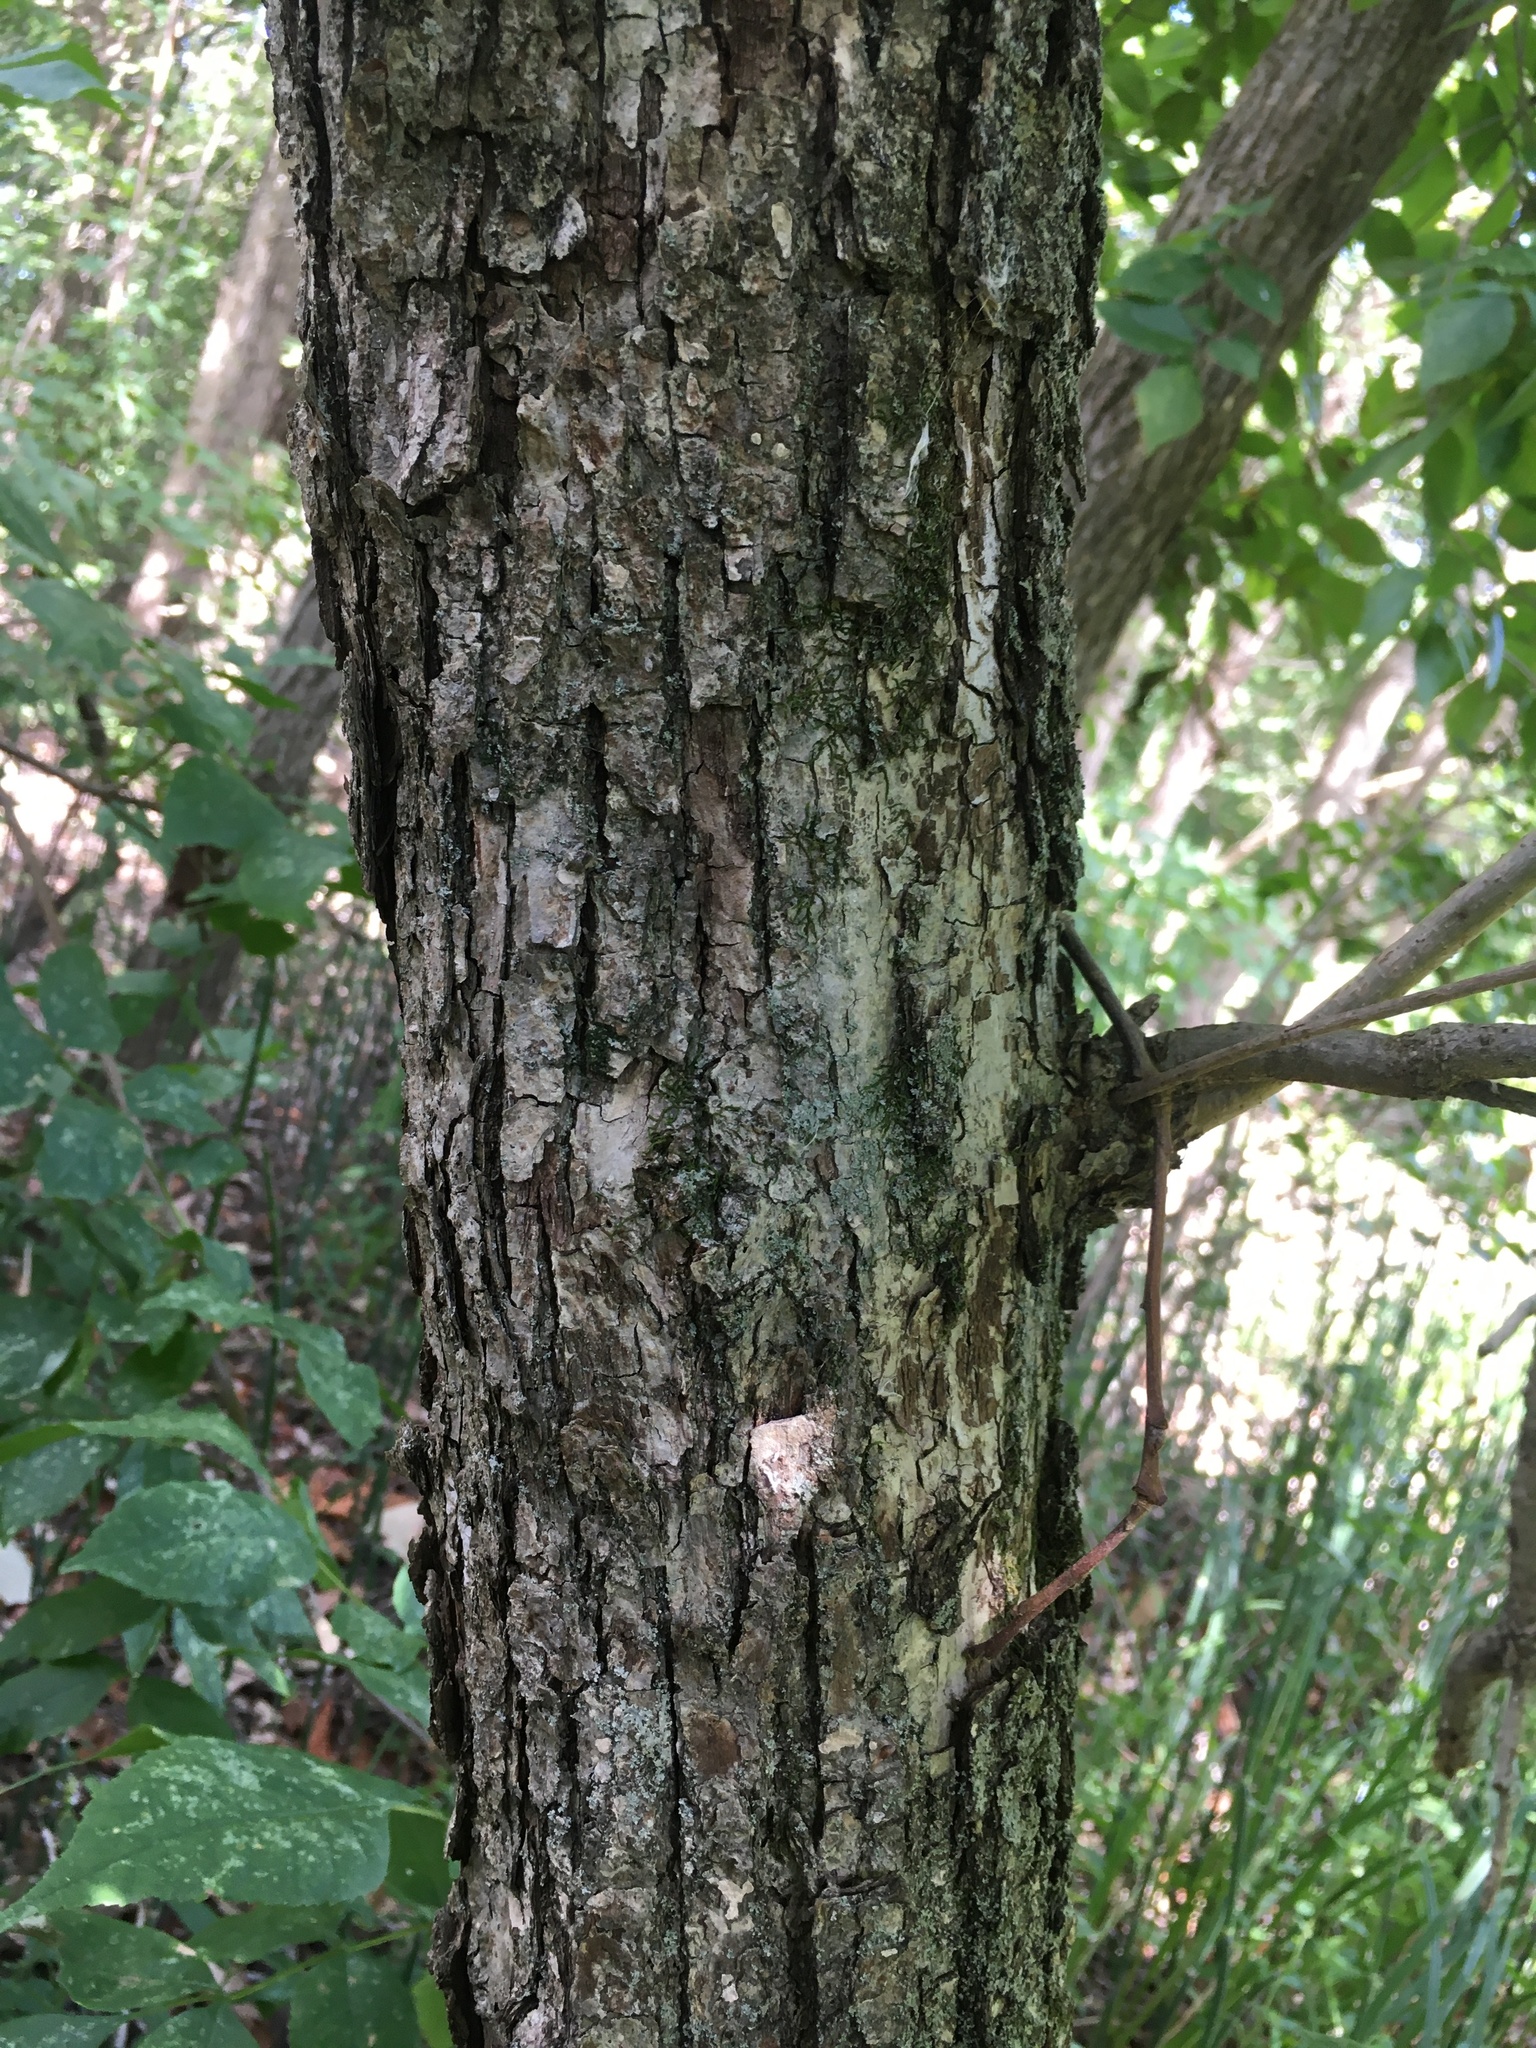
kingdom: Plantae
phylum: Tracheophyta
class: Magnoliopsida
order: Fagales
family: Fagaceae
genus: Quercus
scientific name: Quercus bicolor
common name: Swamp white oak
